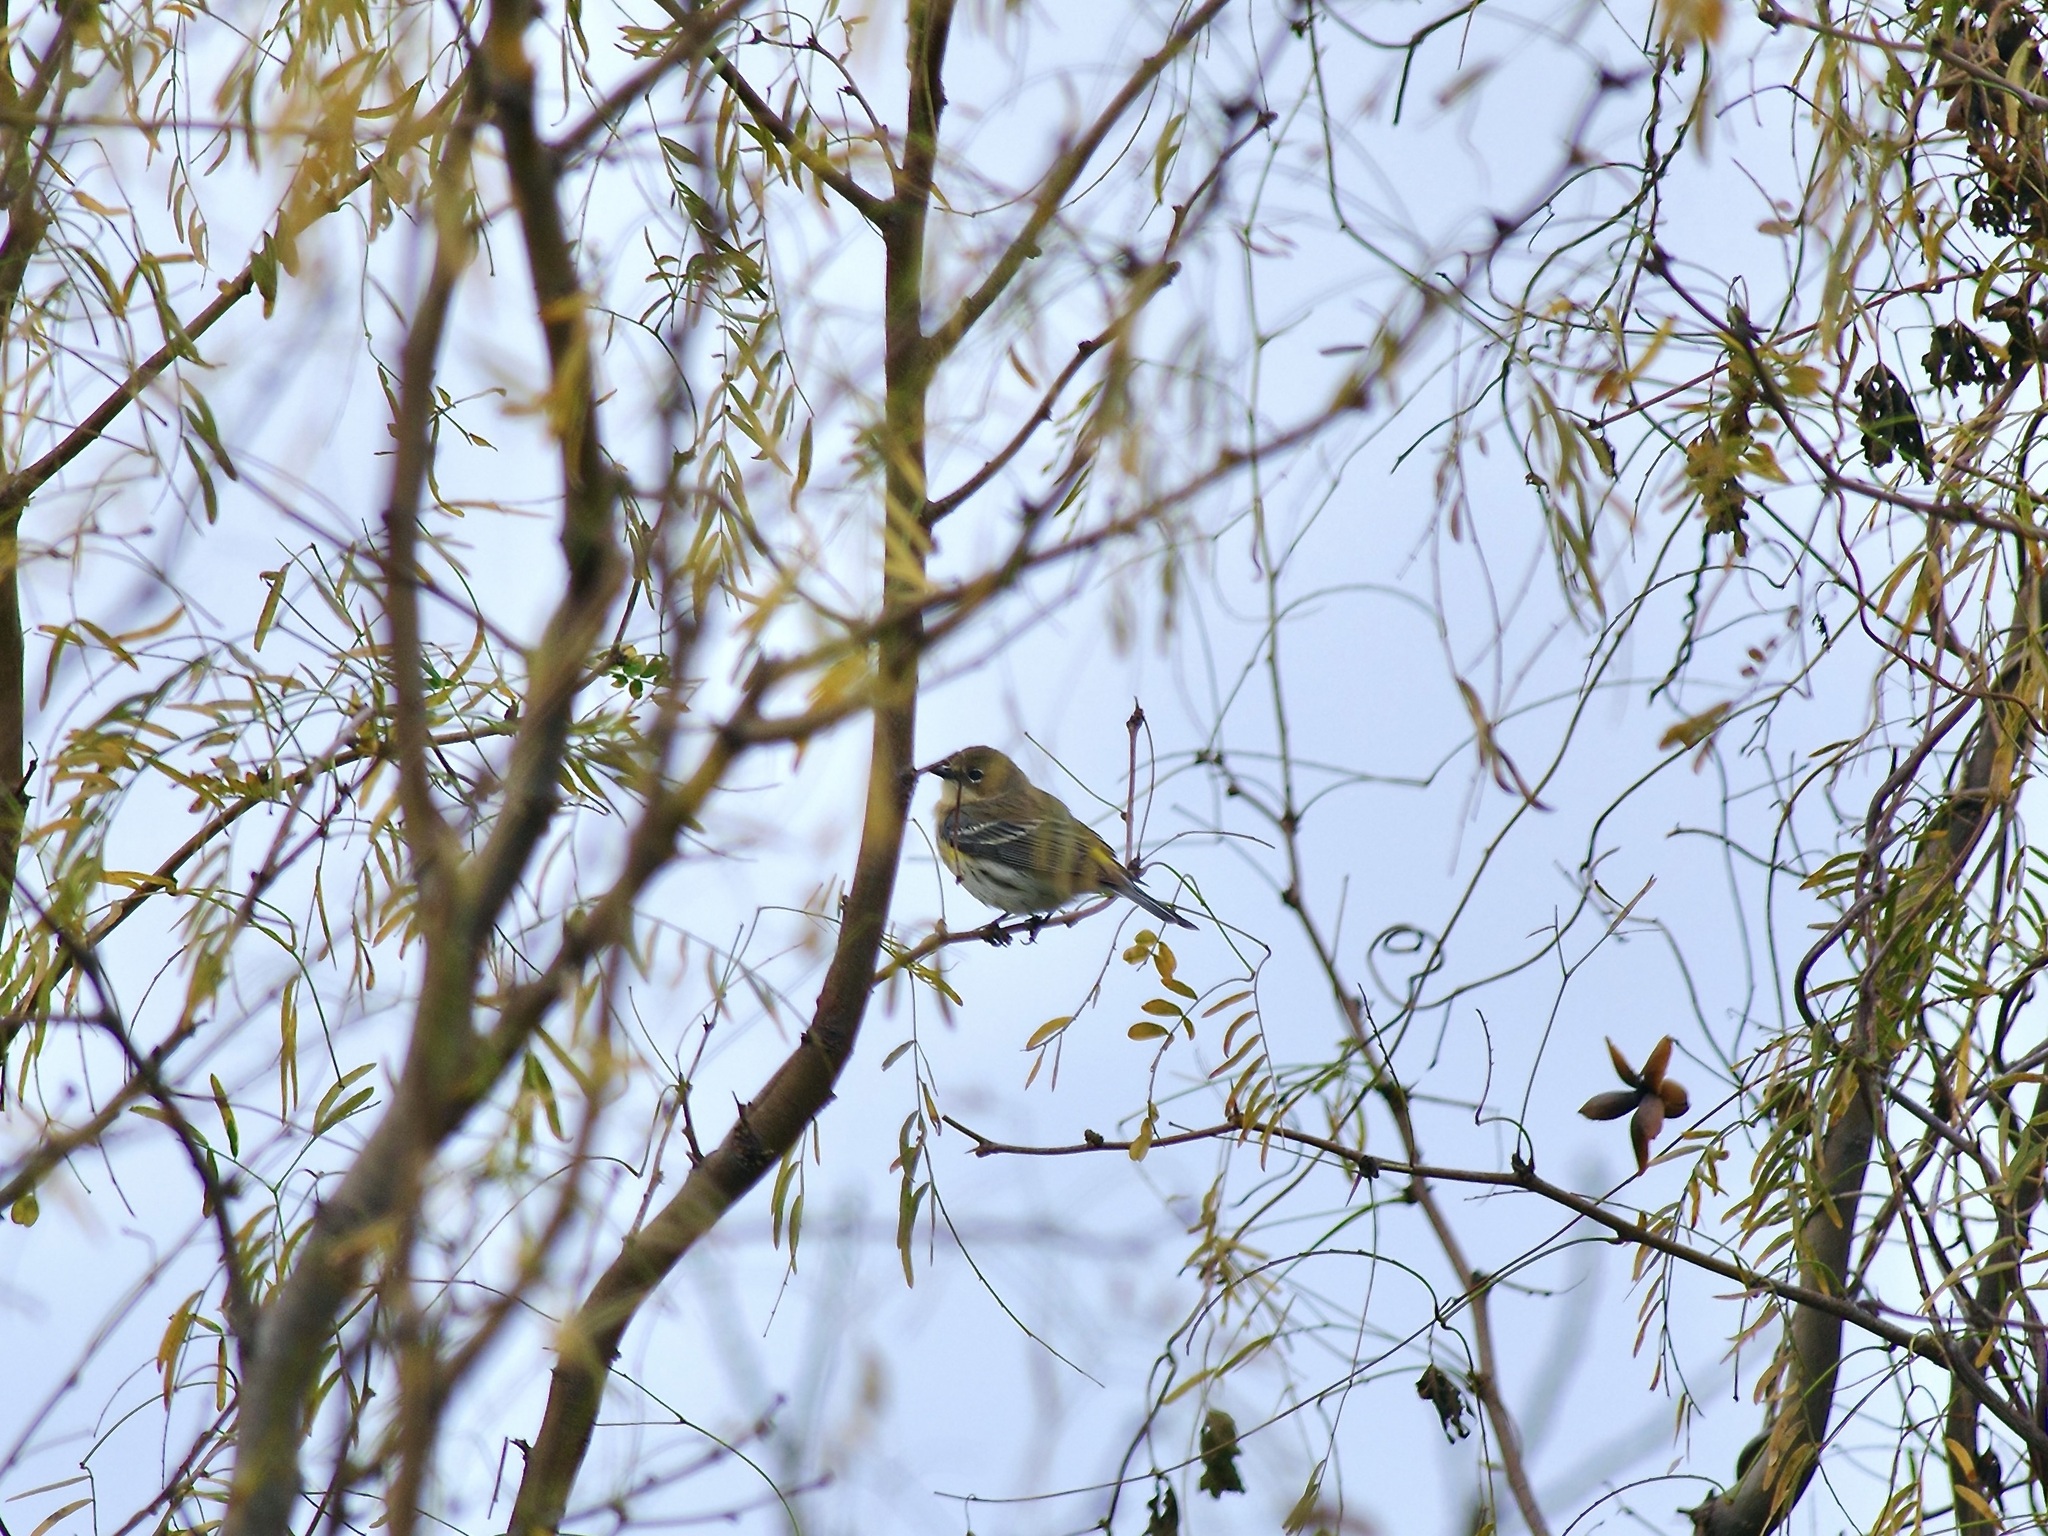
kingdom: Animalia
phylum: Chordata
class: Aves
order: Passeriformes
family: Parulidae
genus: Setophaga
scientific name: Setophaga coronata
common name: Myrtle warbler
